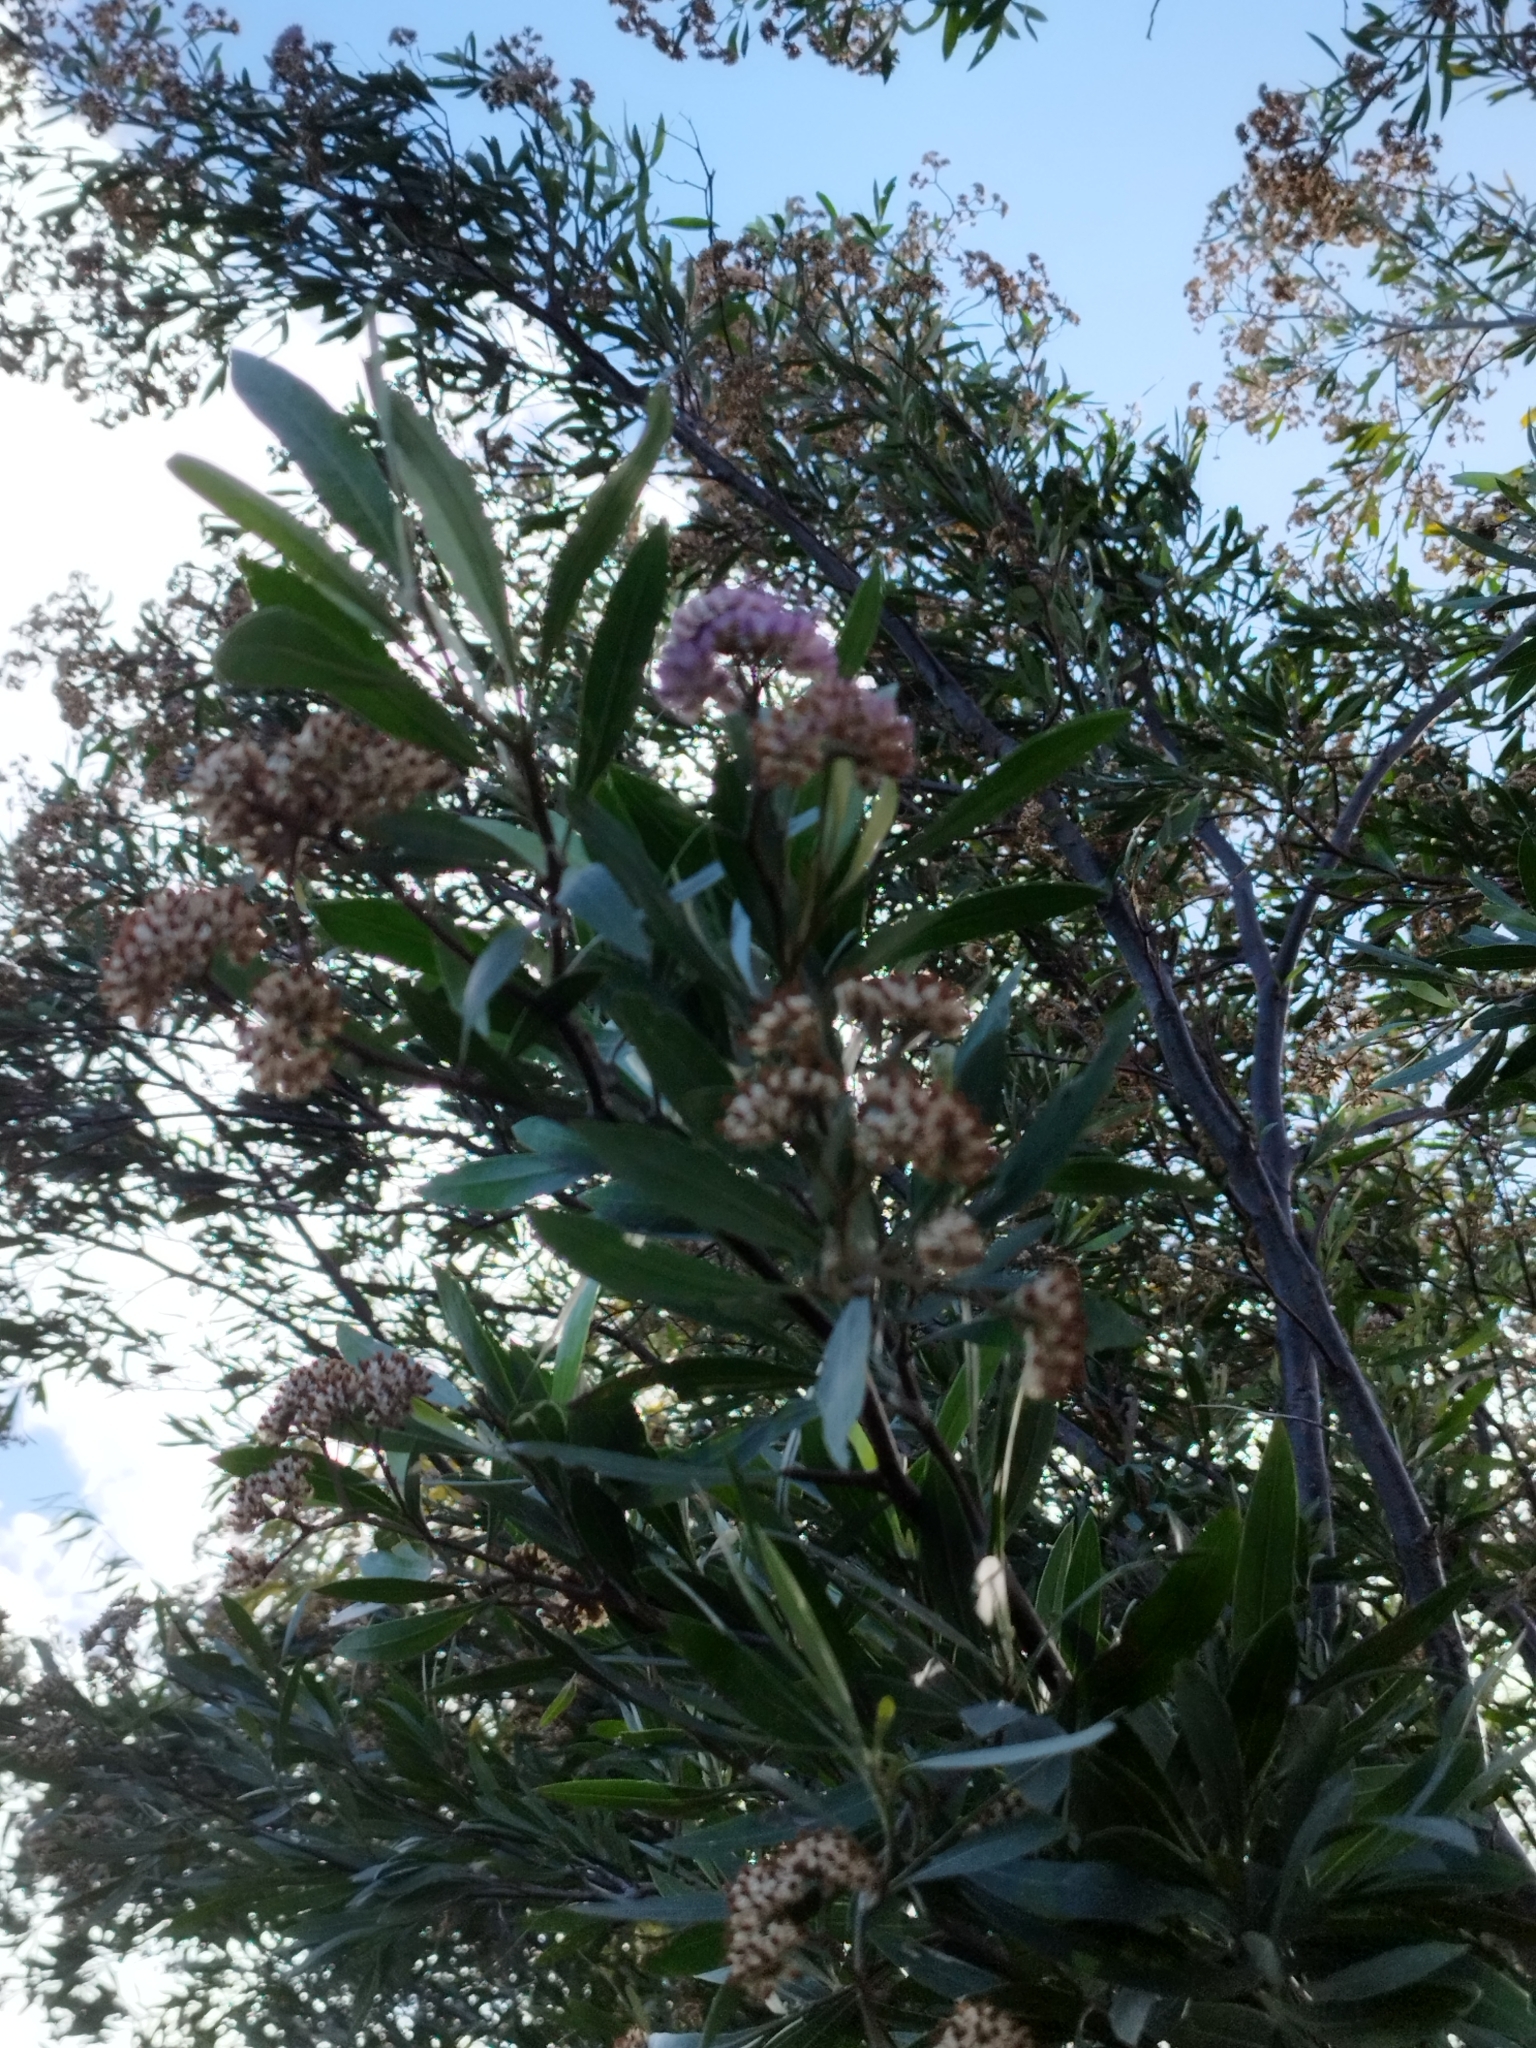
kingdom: Plantae
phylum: Tracheophyta
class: Magnoliopsida
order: Asterales
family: Asteraceae
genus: Tessaria
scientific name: Tessaria integrifolia
